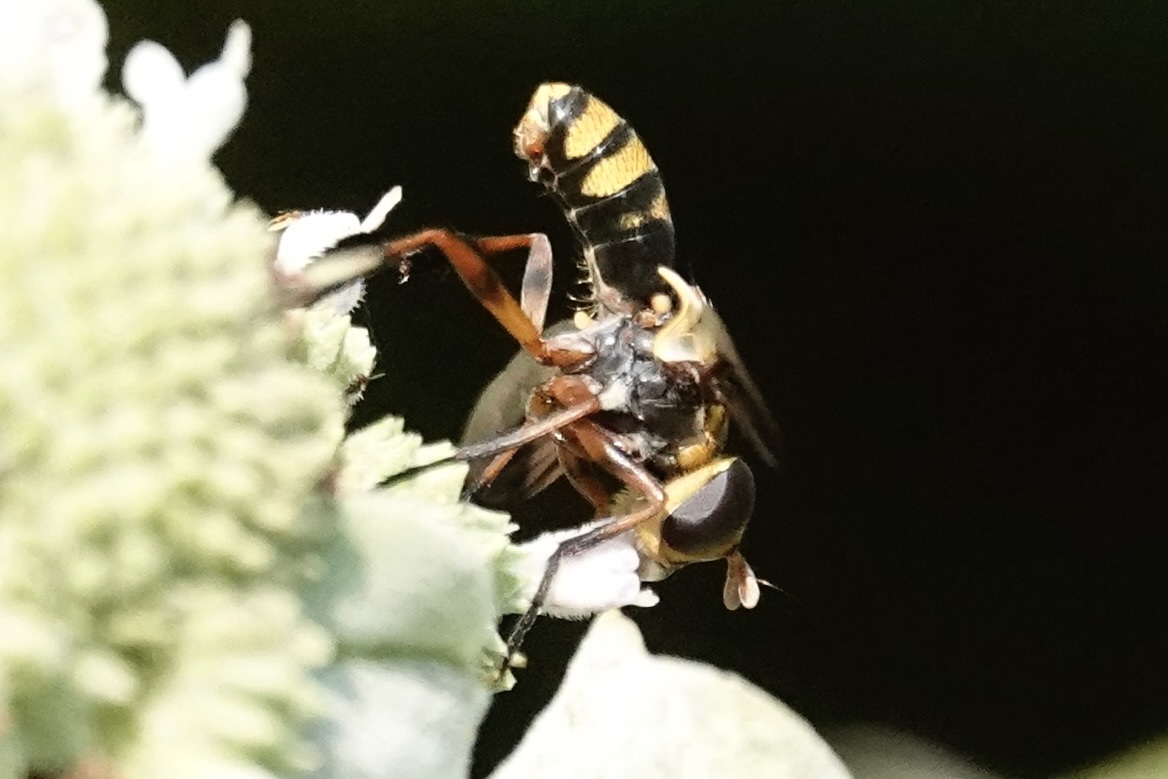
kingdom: Animalia
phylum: Arthropoda
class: Insecta
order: Diptera
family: Tachinidae
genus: Trichopoda
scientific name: Trichopoda plumipes
